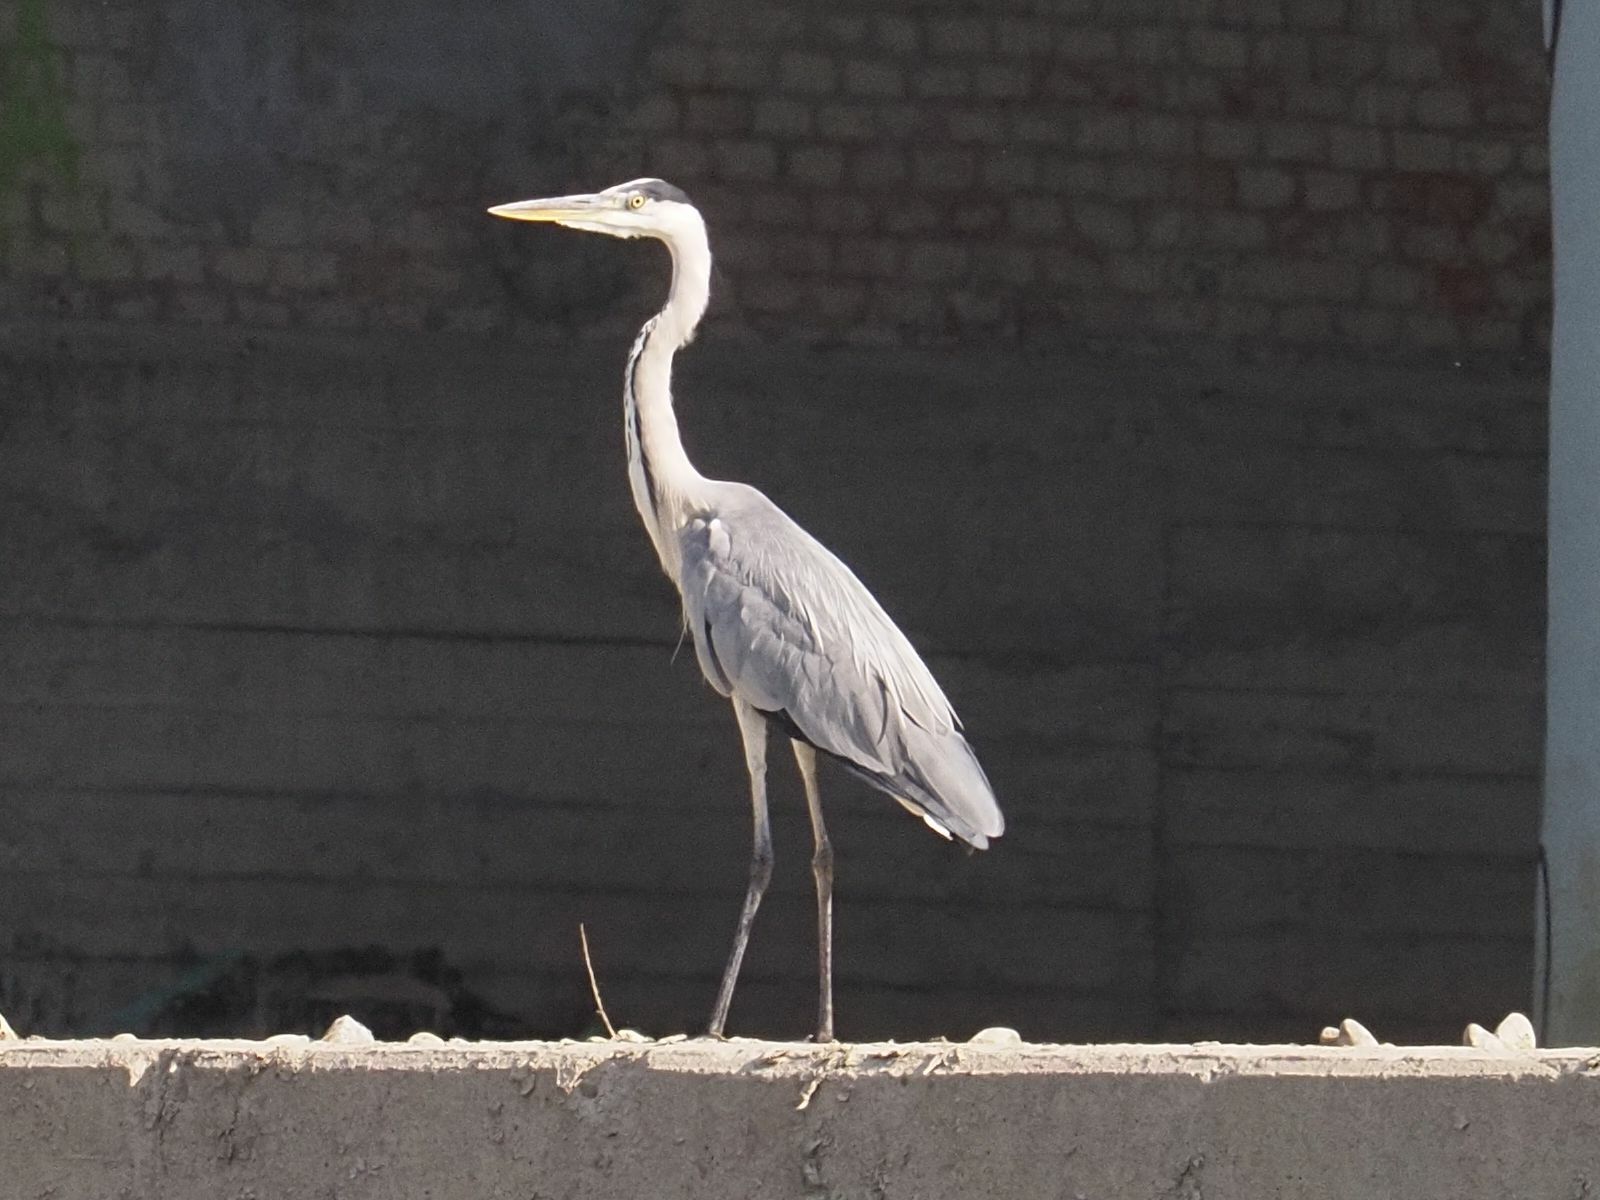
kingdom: Animalia
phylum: Chordata
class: Aves
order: Pelecaniformes
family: Ardeidae
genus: Ardea
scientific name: Ardea cinerea
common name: Grey heron
